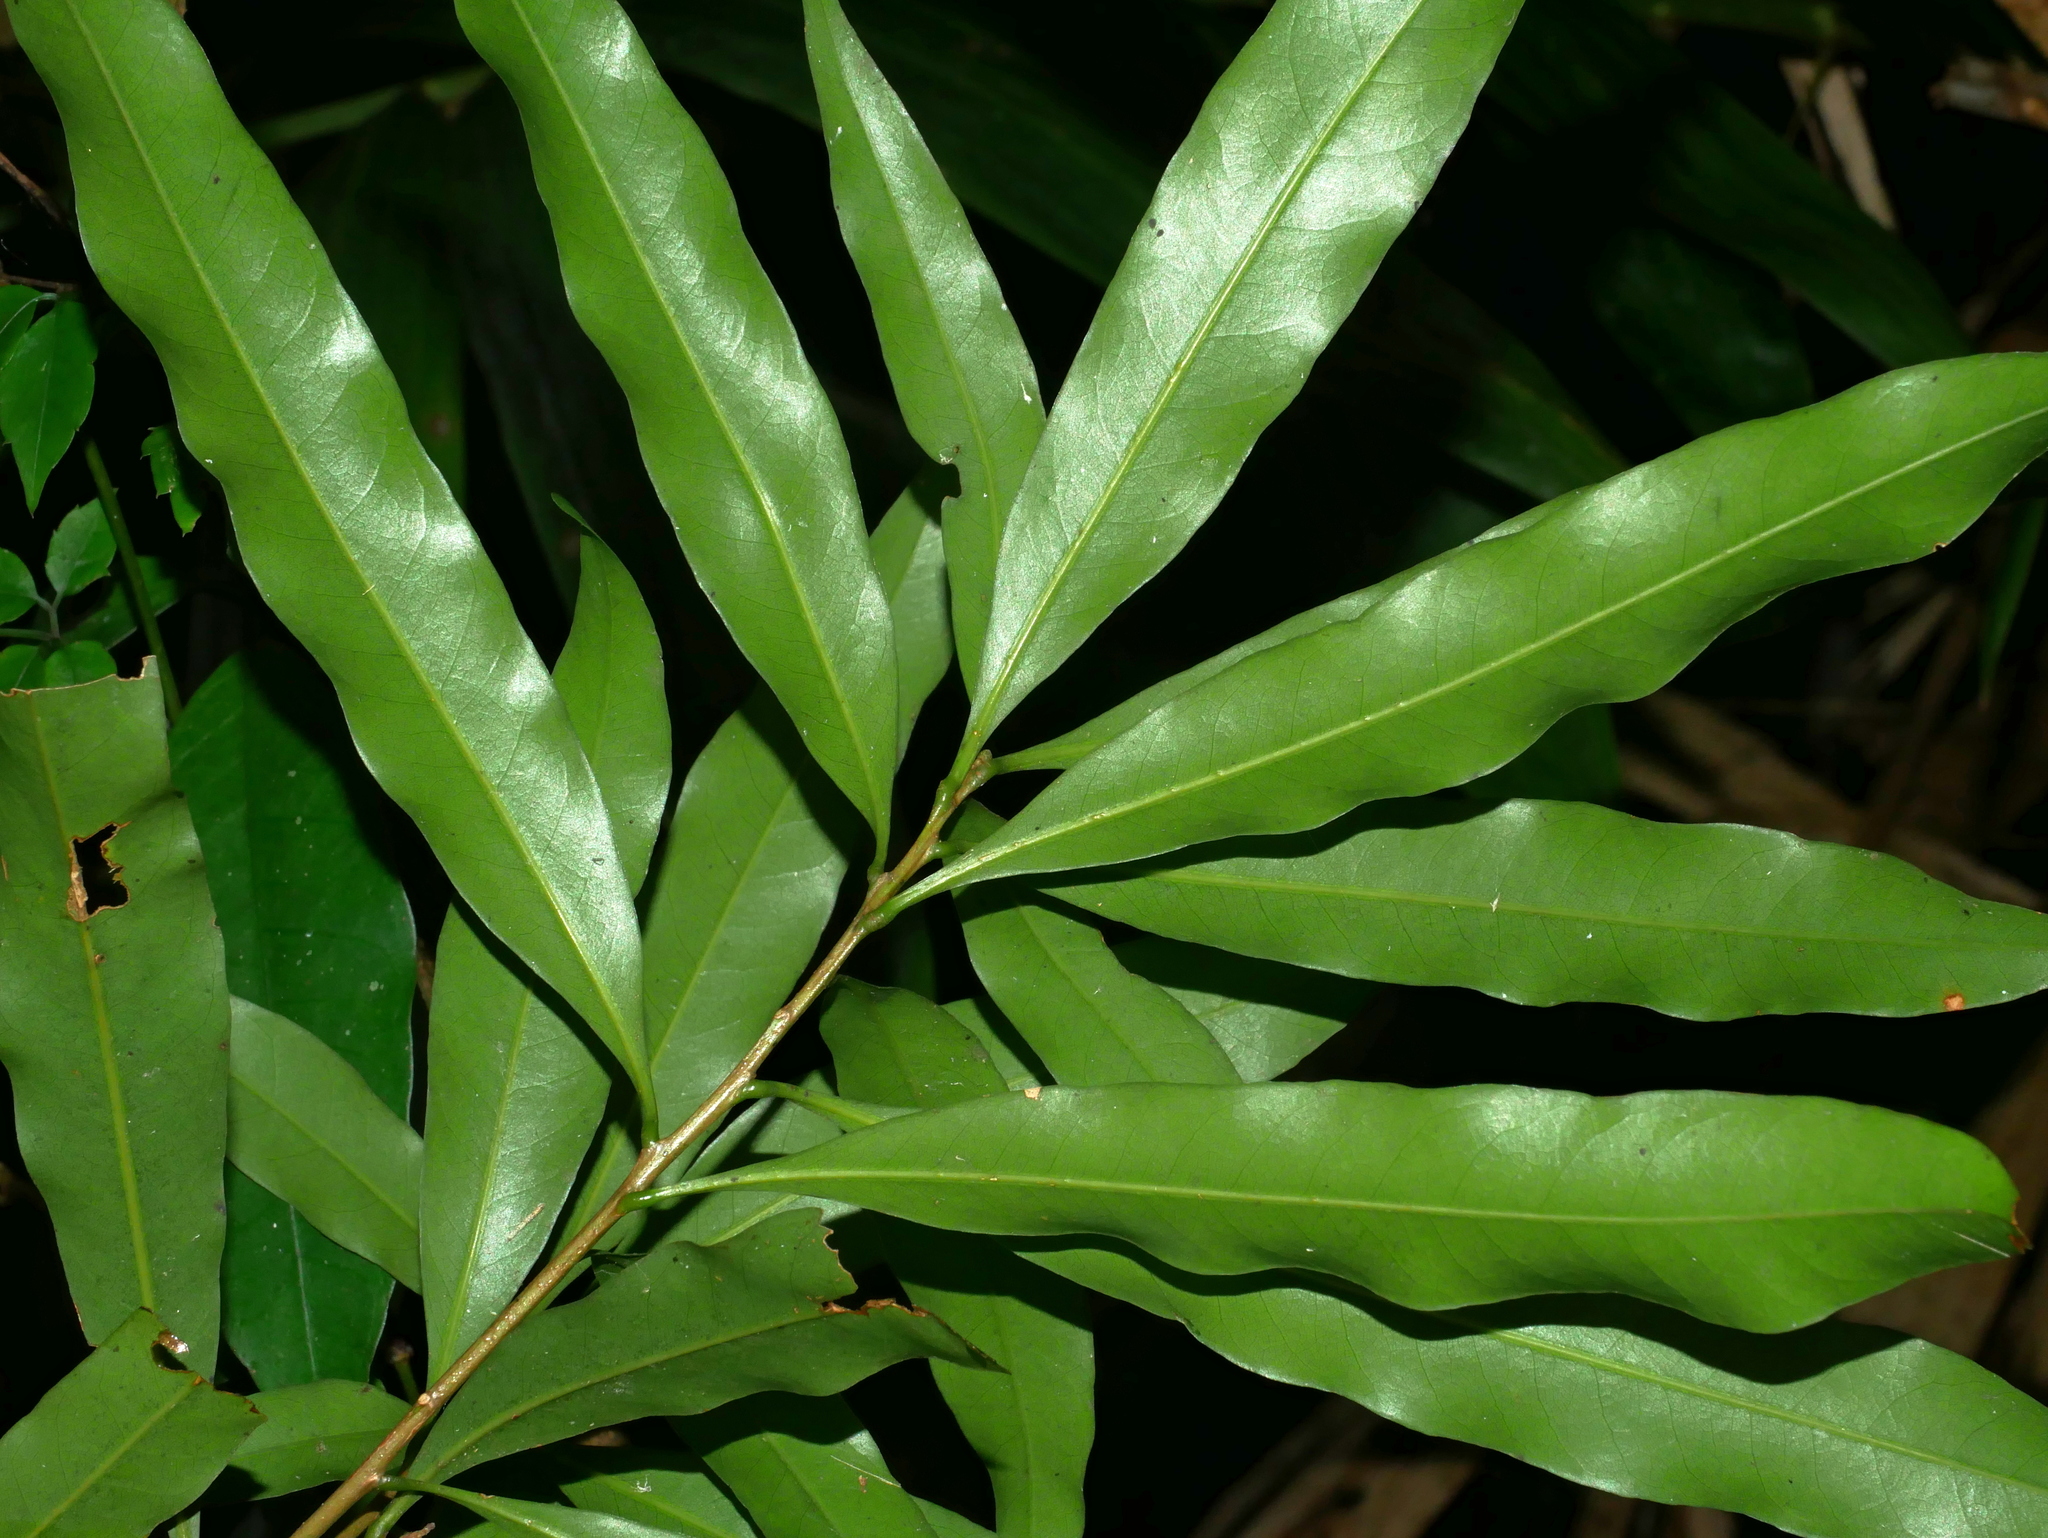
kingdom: Plantae
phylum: Tracheophyta
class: Magnoliopsida
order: Fagales
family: Fagaceae
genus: Lithocarpus
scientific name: Lithocarpus hancei
